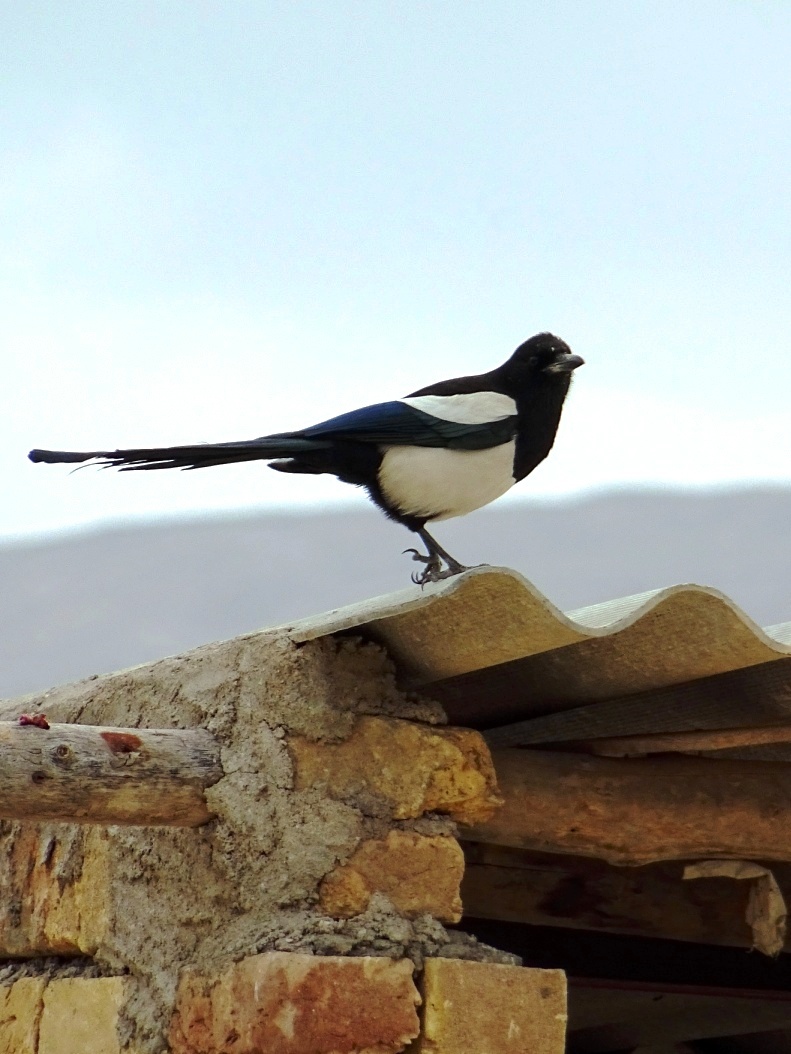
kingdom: Animalia
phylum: Chordata
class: Aves
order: Passeriformes
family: Corvidae
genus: Pica
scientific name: Pica pica
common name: Eurasian magpie
